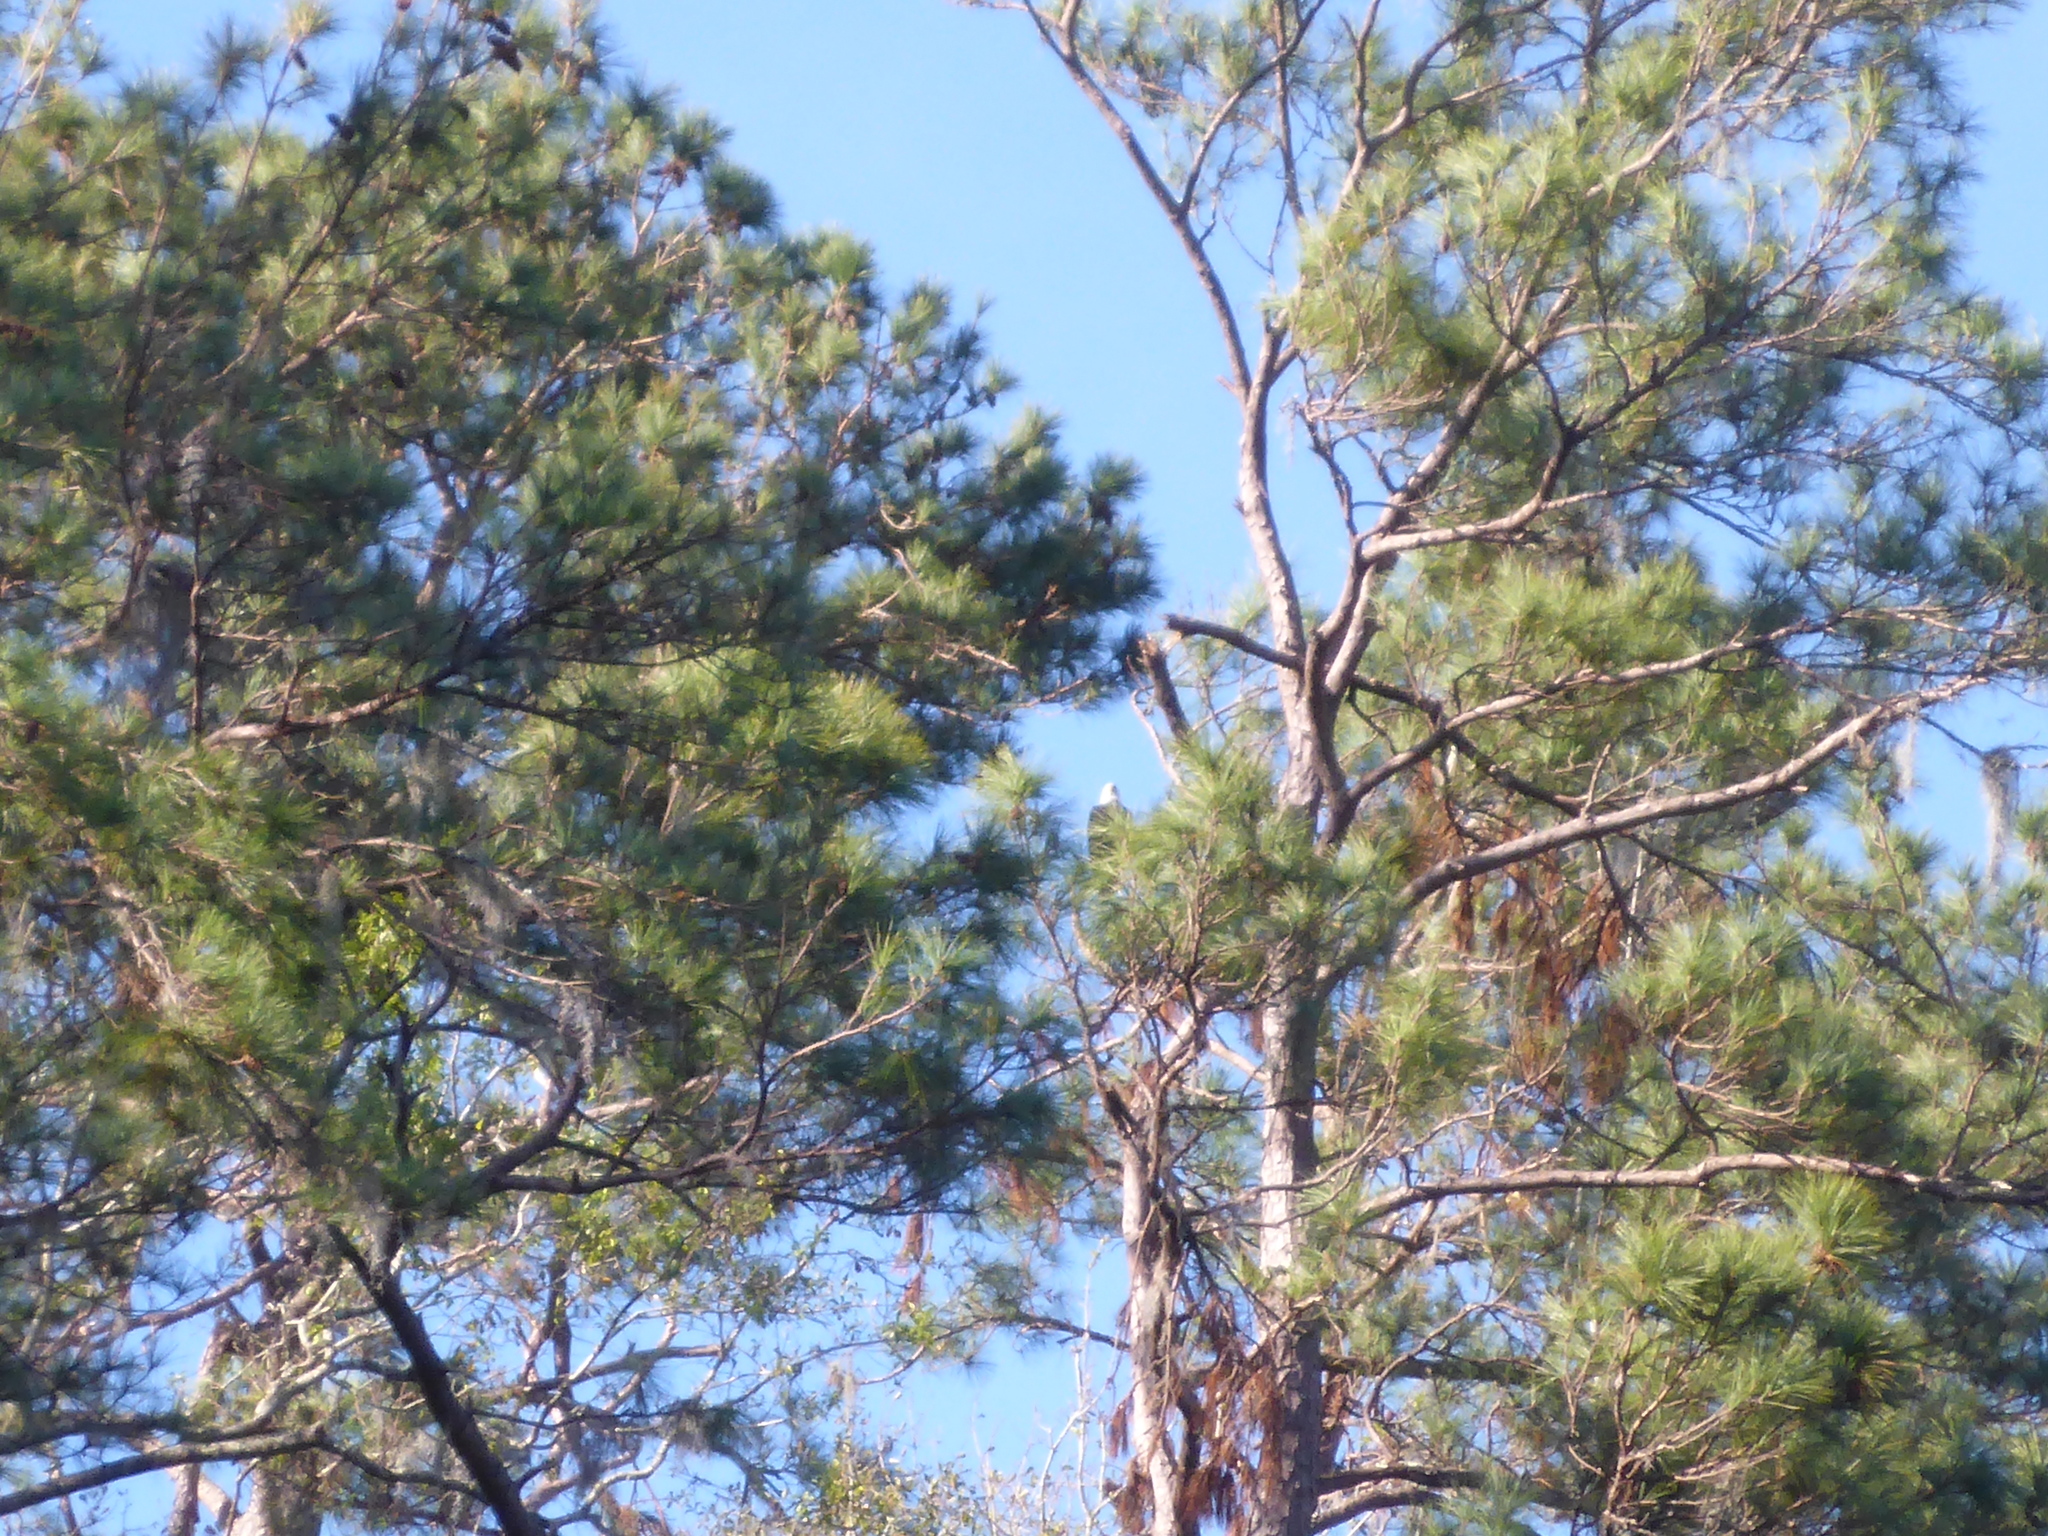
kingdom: Animalia
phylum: Chordata
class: Aves
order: Accipitriformes
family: Accipitridae
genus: Haliaeetus
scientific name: Haliaeetus leucocephalus
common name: Bald eagle
